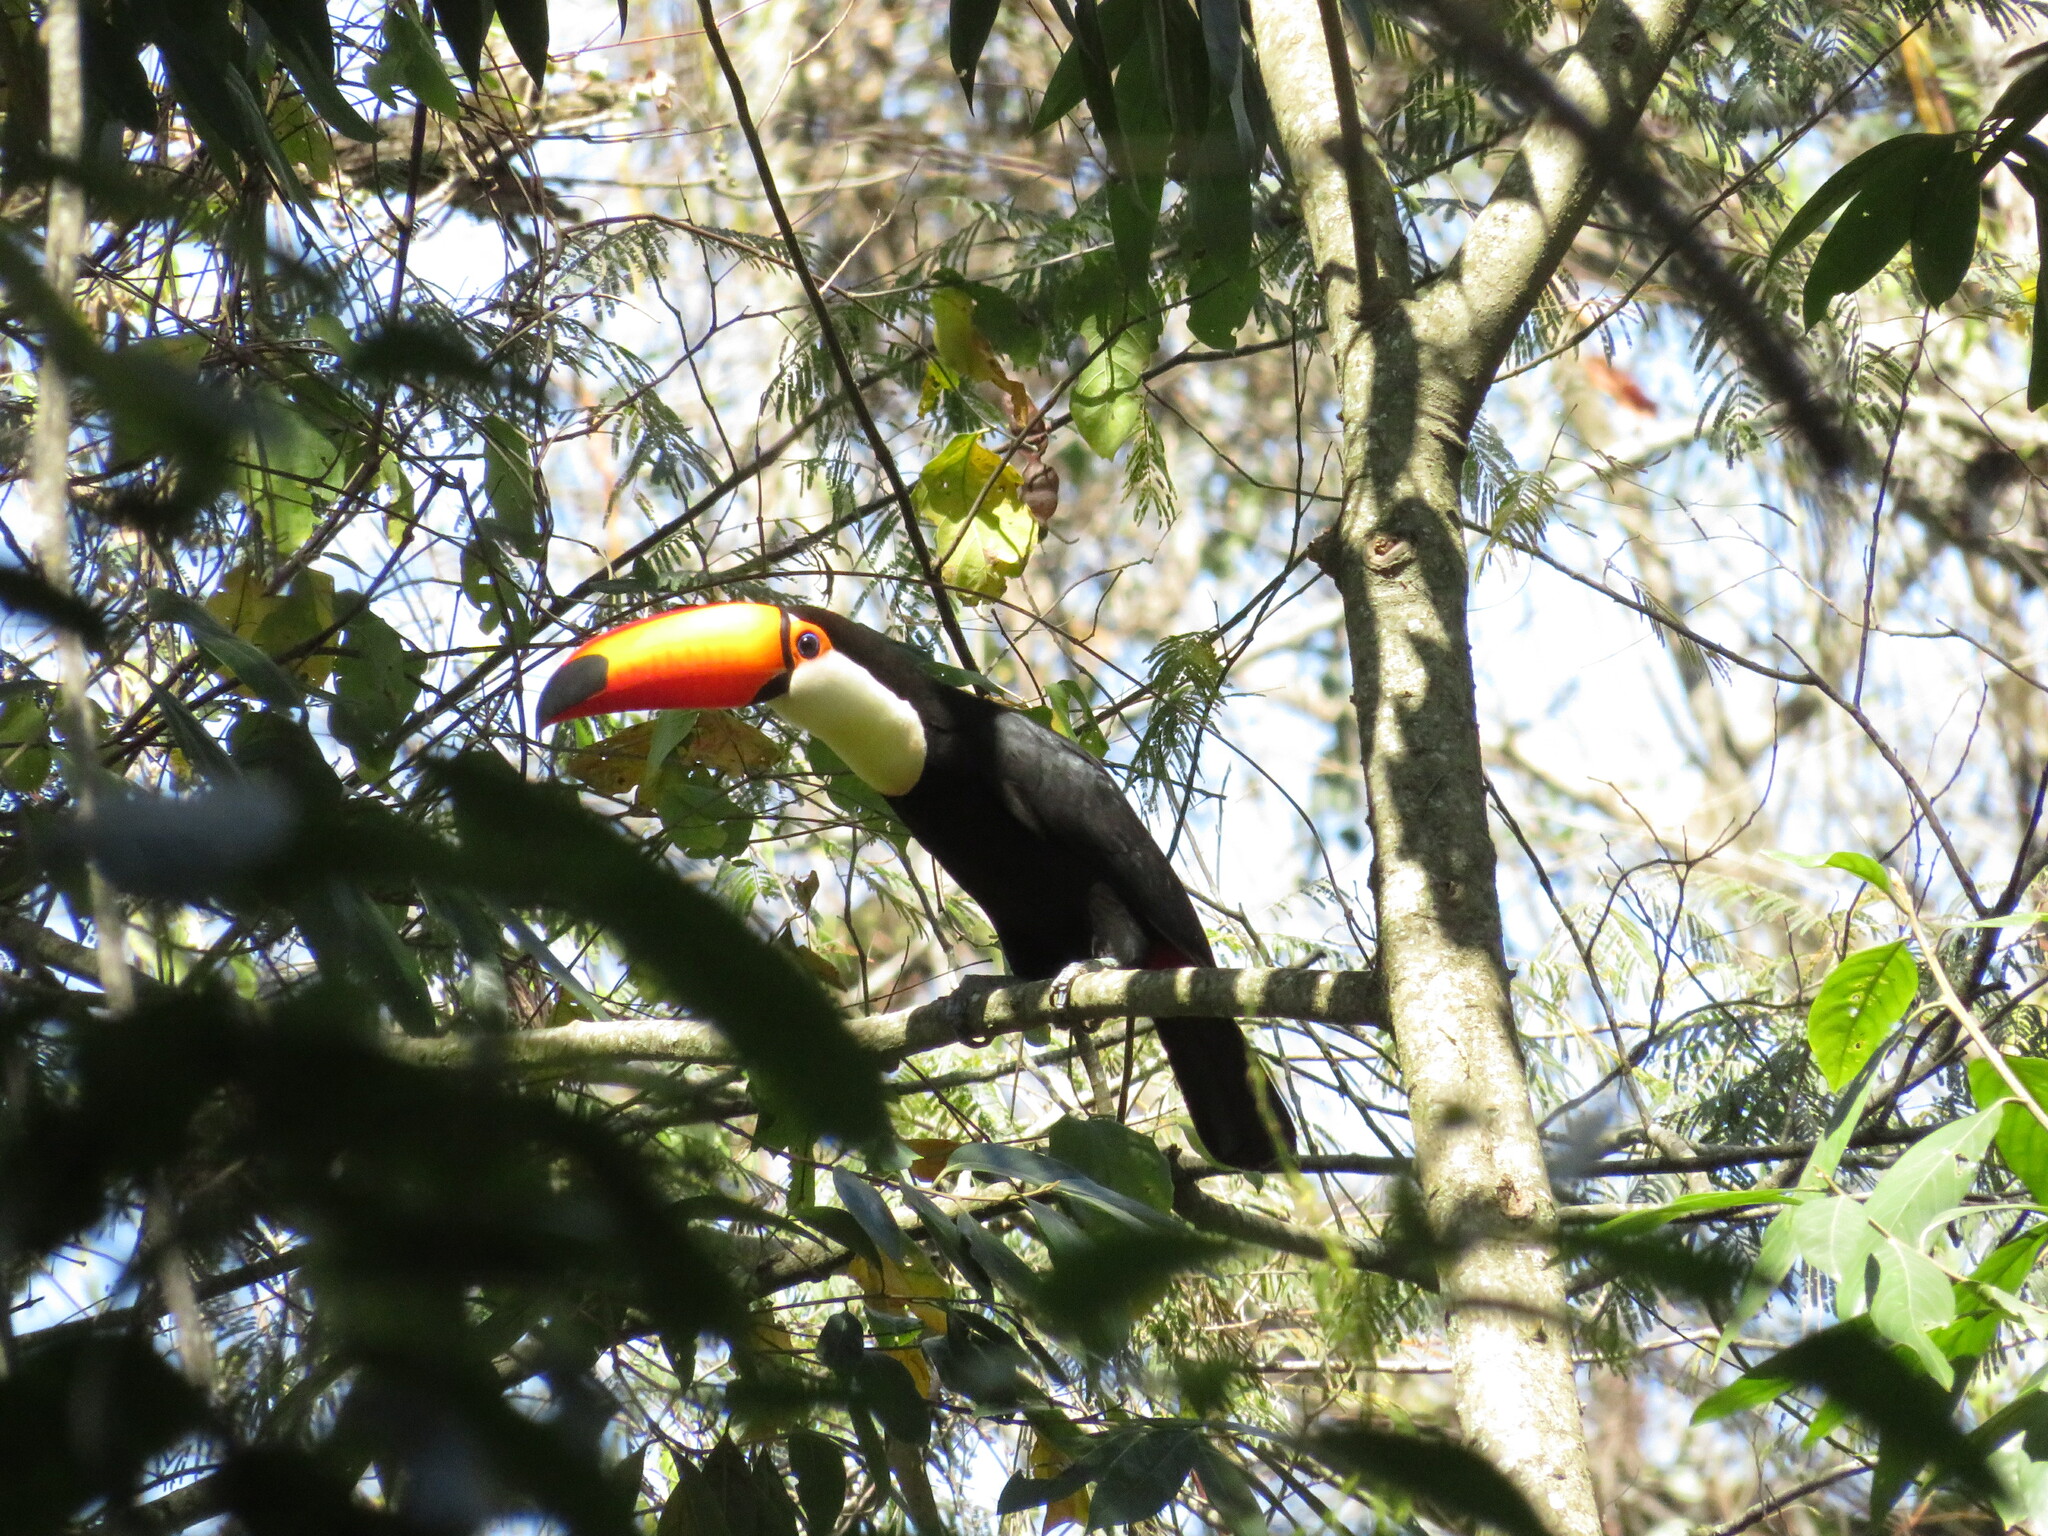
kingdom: Animalia
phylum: Chordata
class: Aves
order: Piciformes
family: Ramphastidae
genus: Ramphastos
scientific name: Ramphastos toco
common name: Toco toucan
